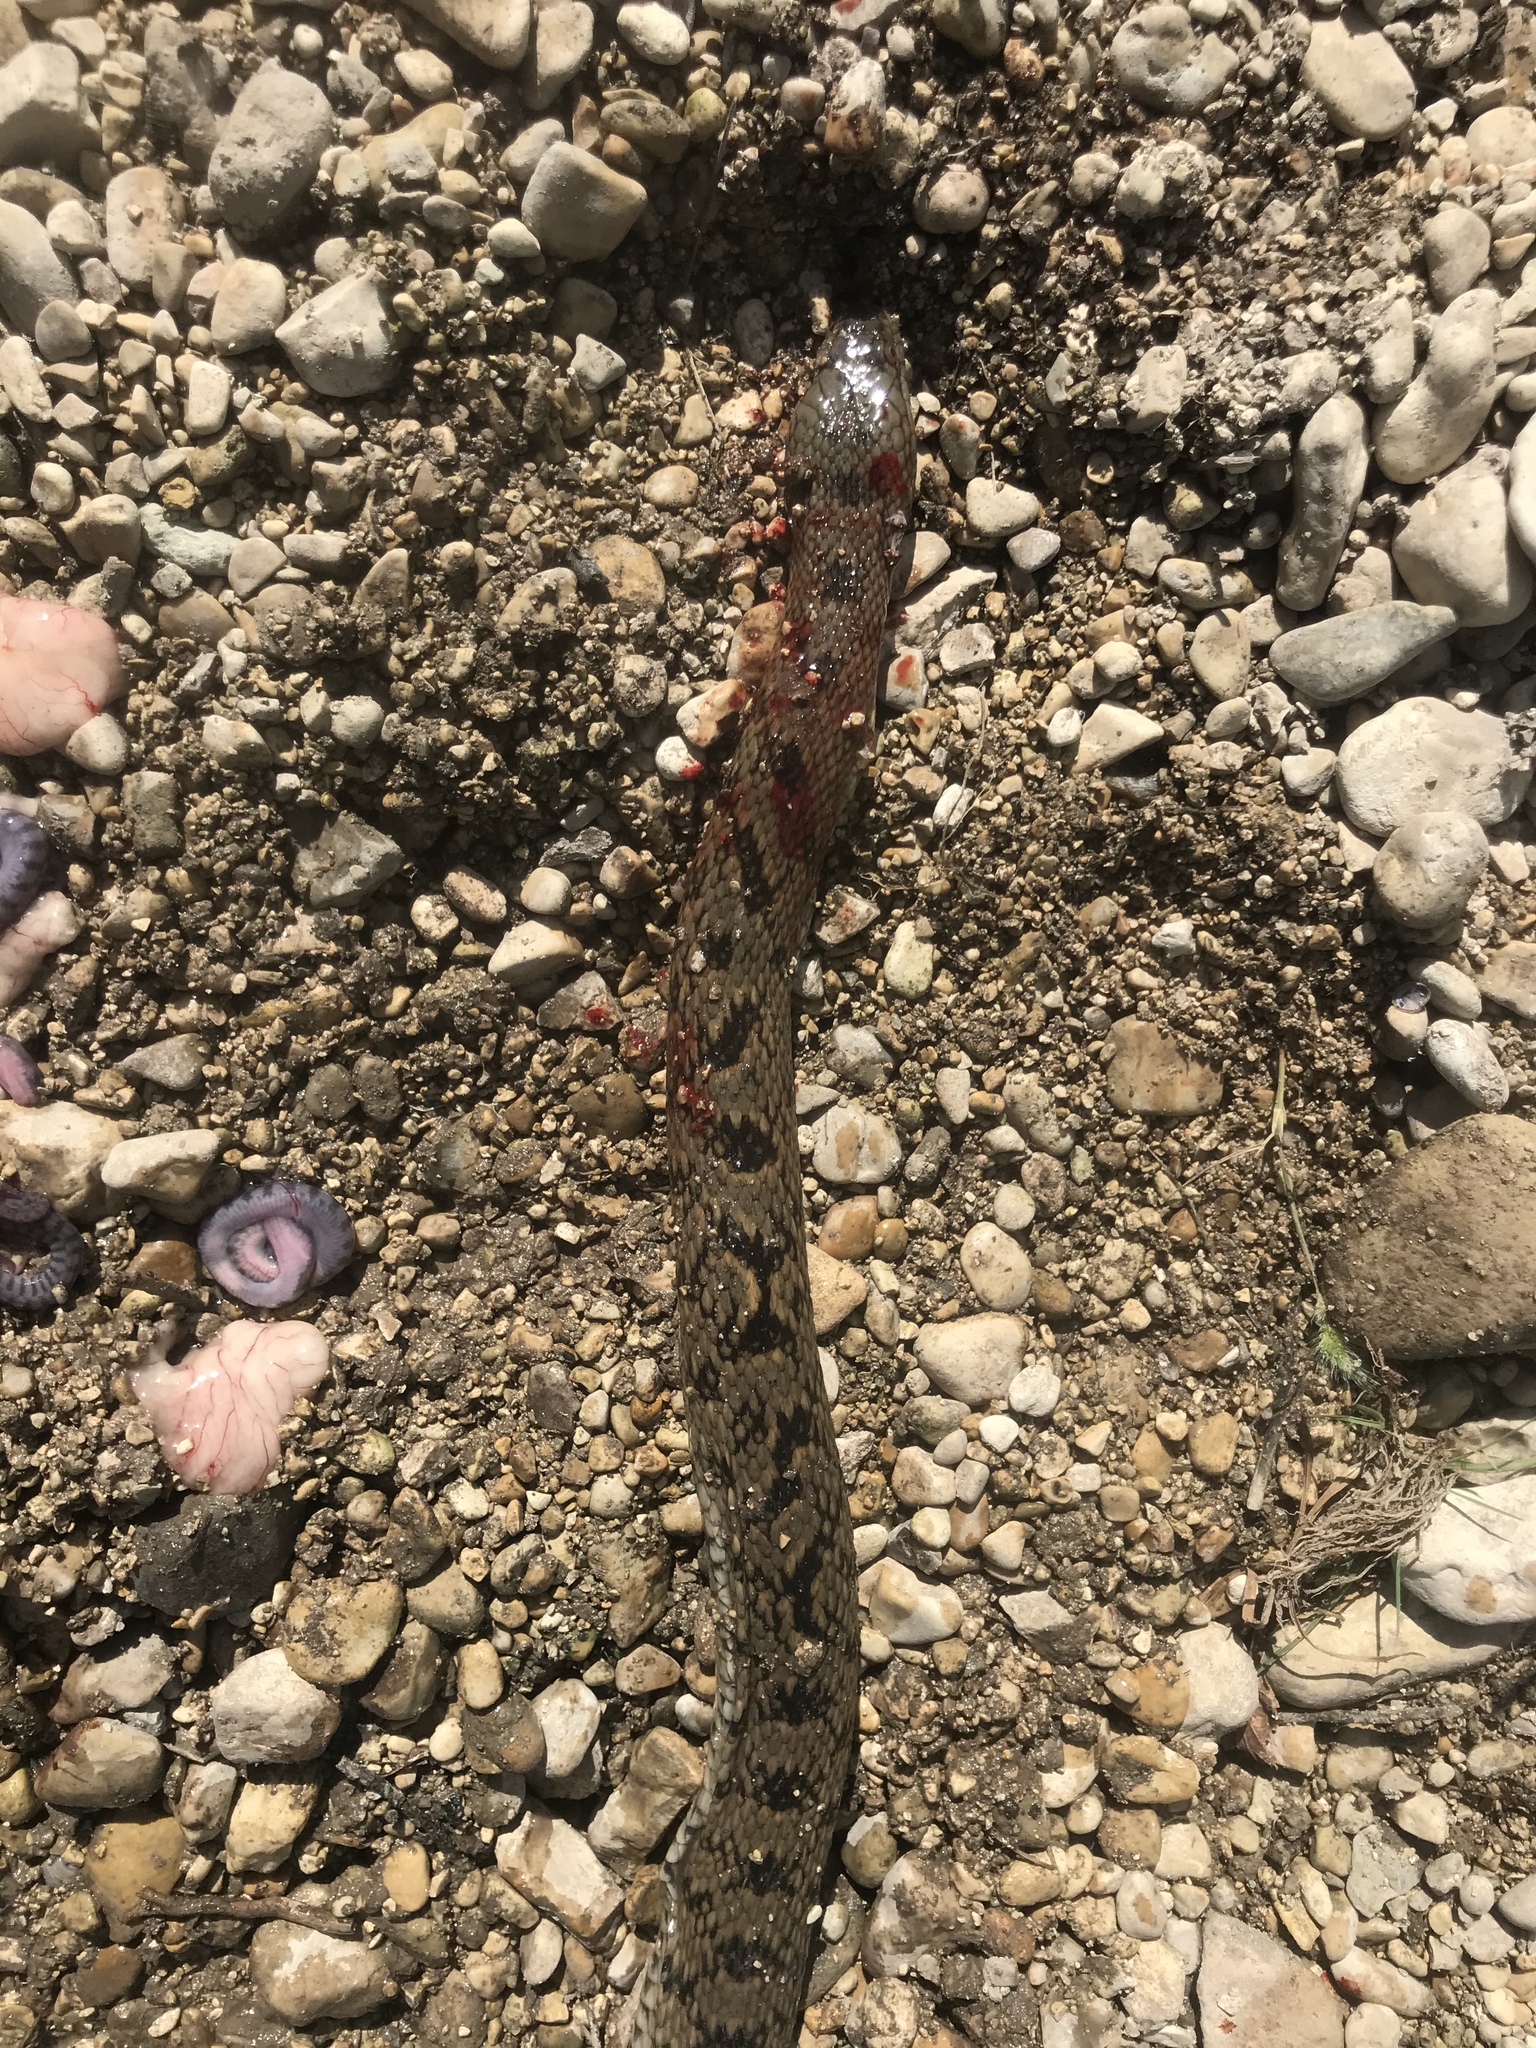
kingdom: Animalia
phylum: Chordata
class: Squamata
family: Colubridae
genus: Nerodia
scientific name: Nerodia rhombifer
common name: Diamondback water snake
